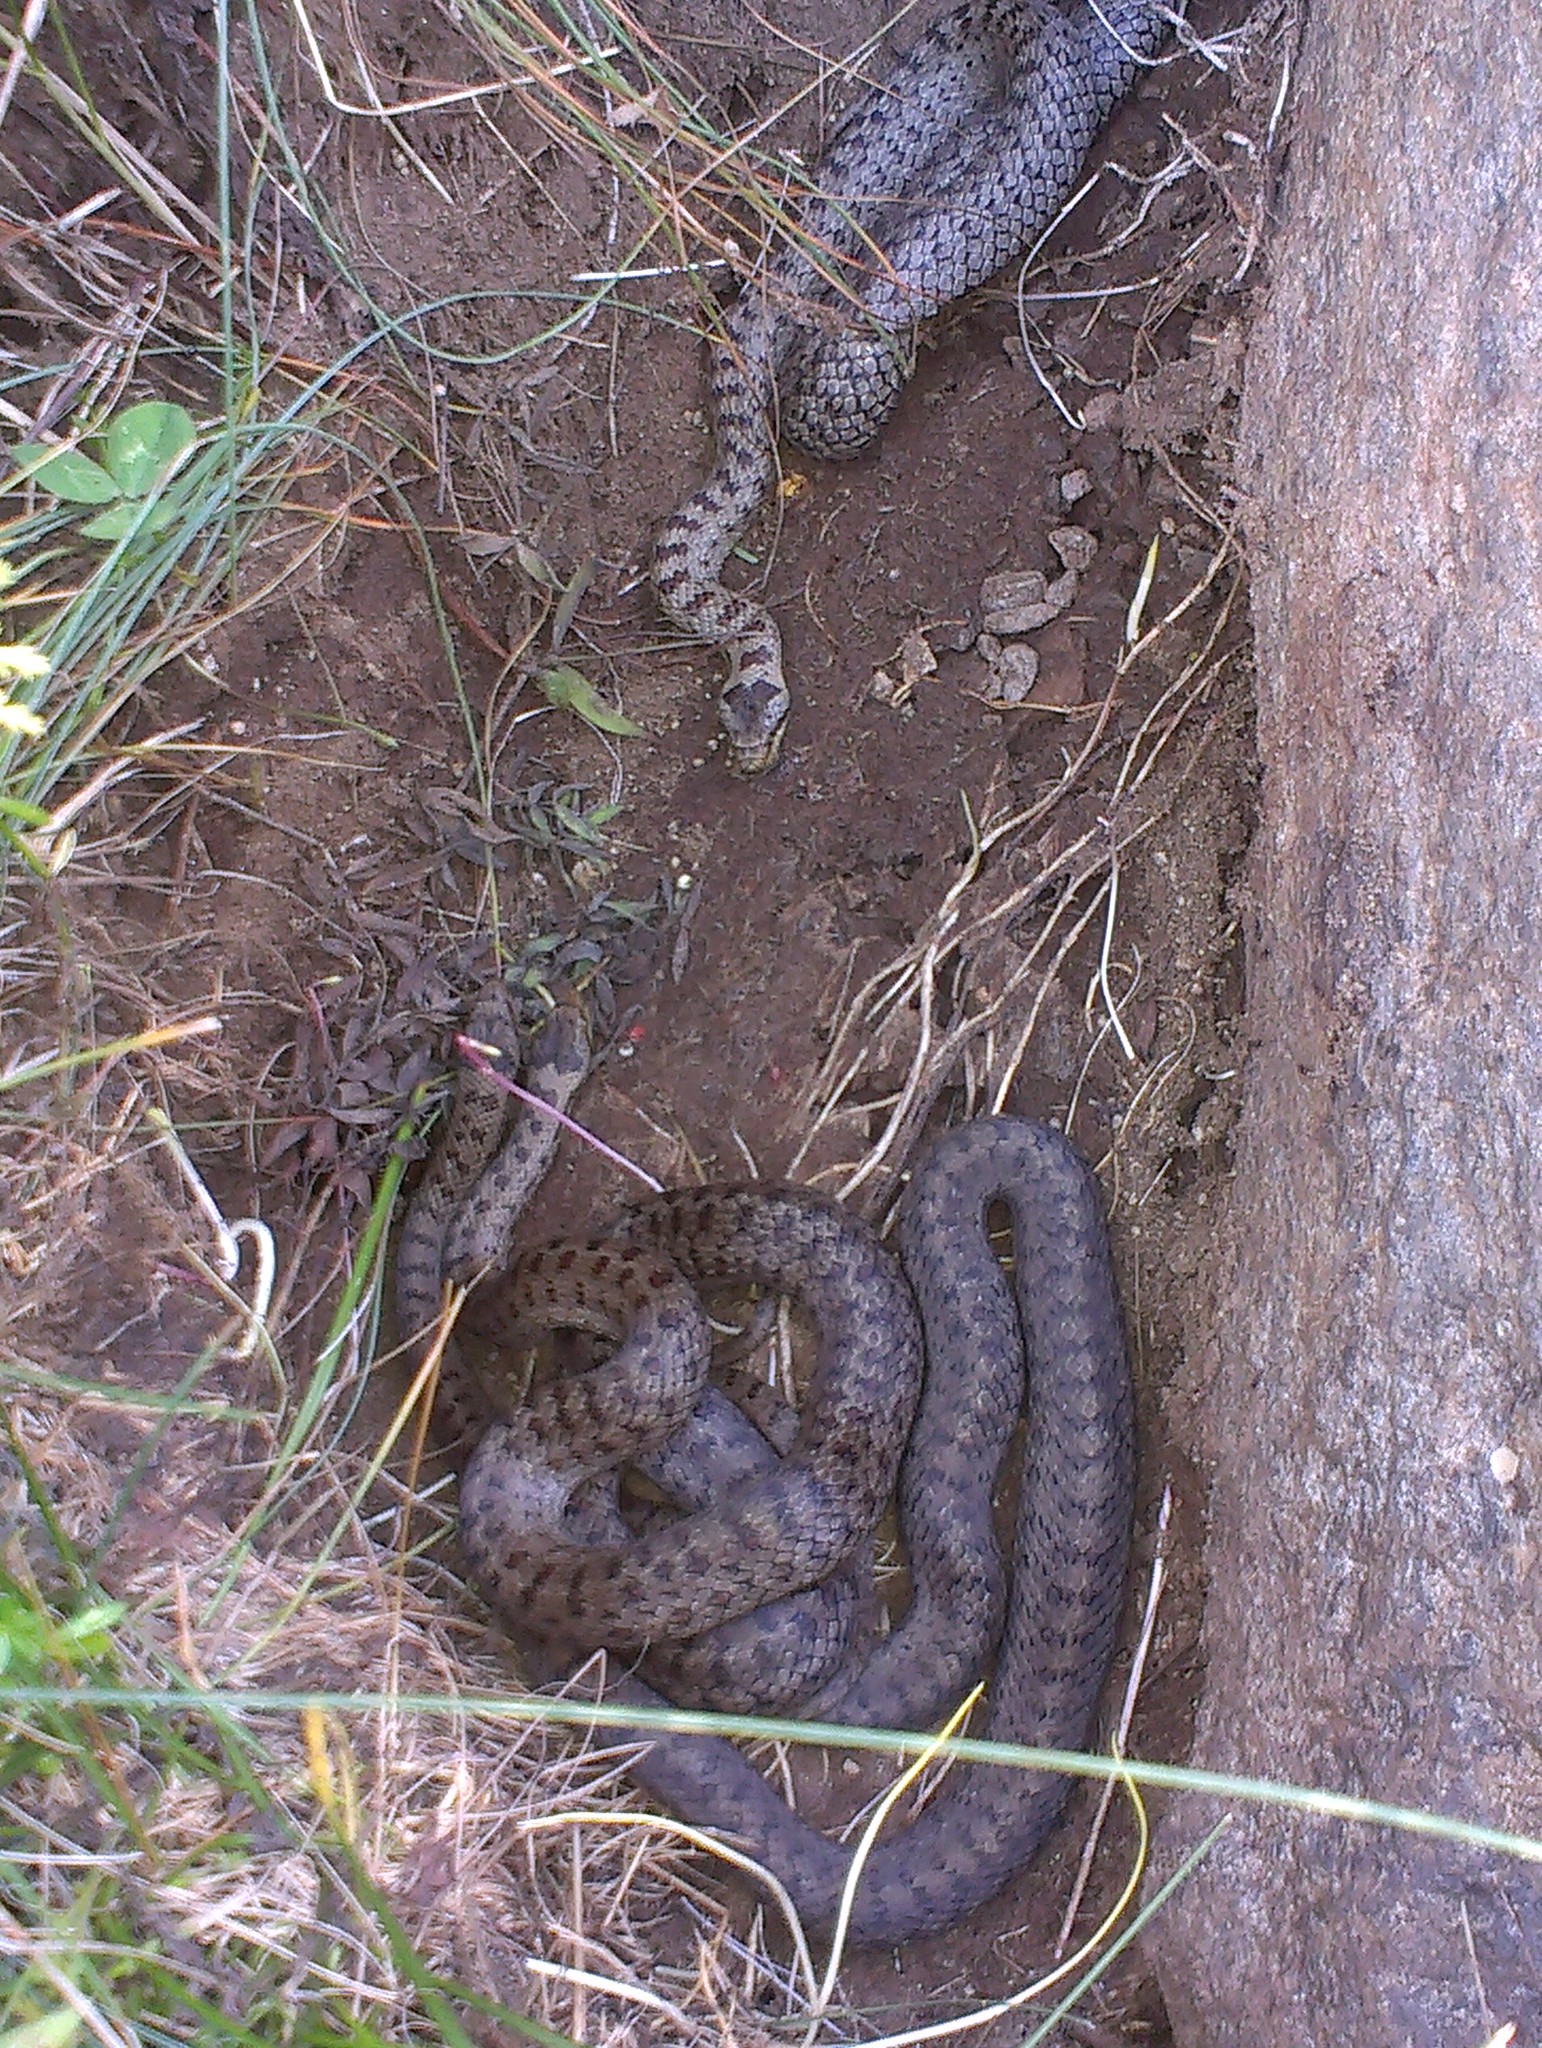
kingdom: Animalia
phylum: Chordata
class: Squamata
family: Colubridae
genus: Coronella
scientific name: Coronella austriaca
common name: Smooth snake
